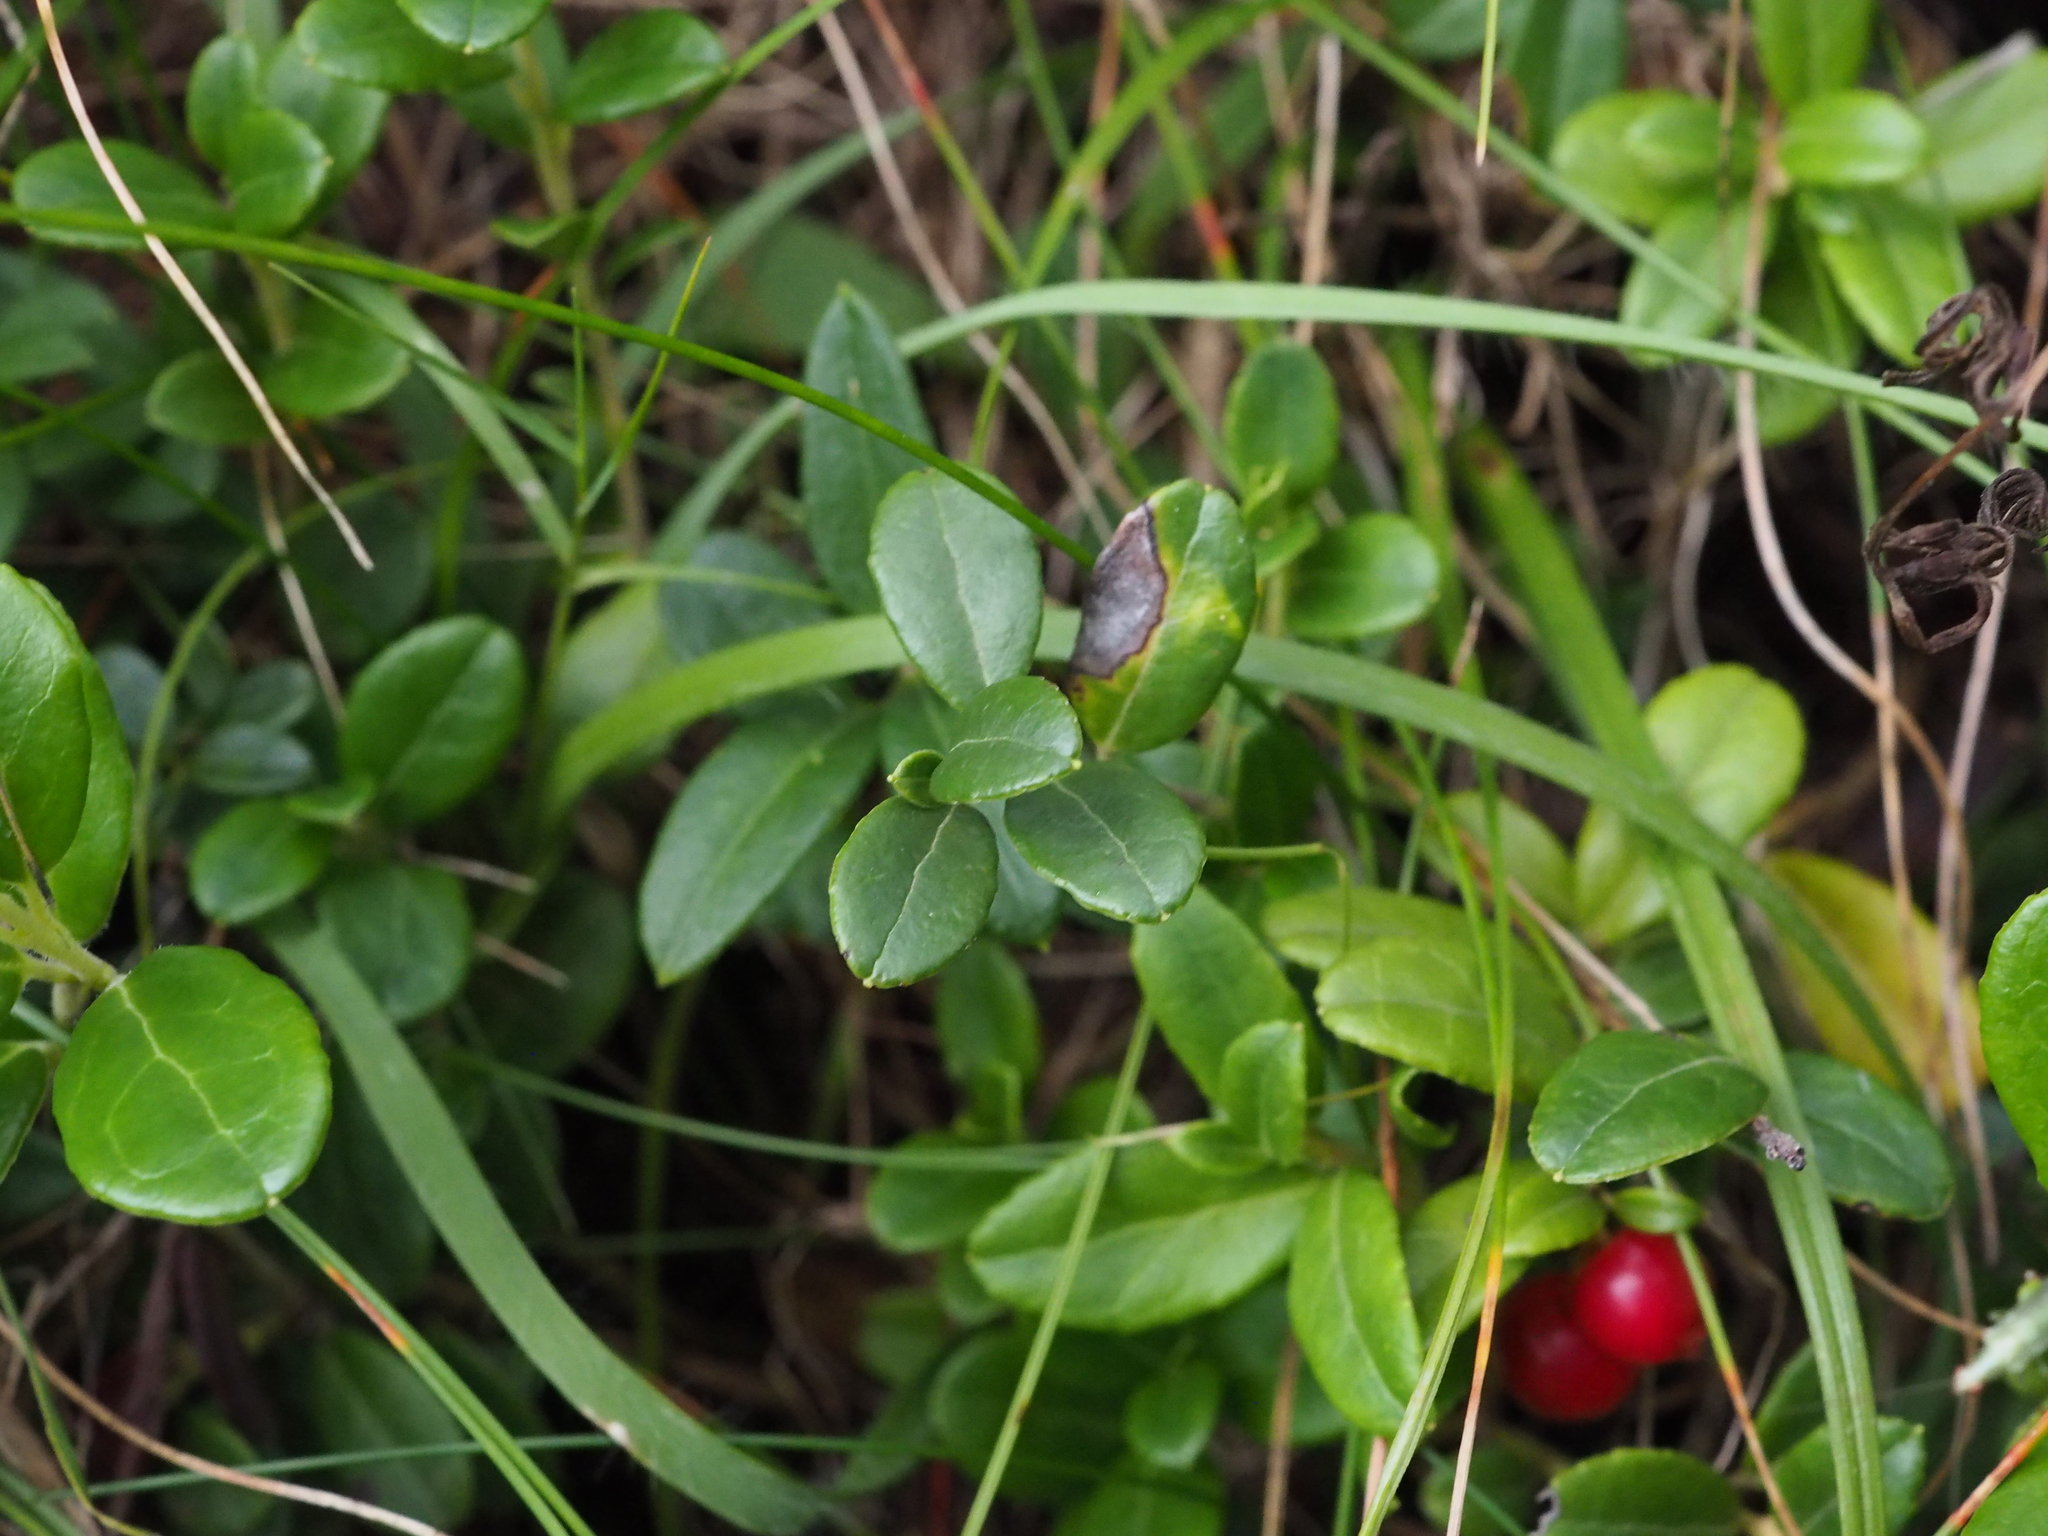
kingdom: Plantae
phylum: Tracheophyta
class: Magnoliopsida
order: Ericales
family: Ericaceae
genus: Vaccinium
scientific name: Vaccinium vitis-idaea
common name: Cowberry
